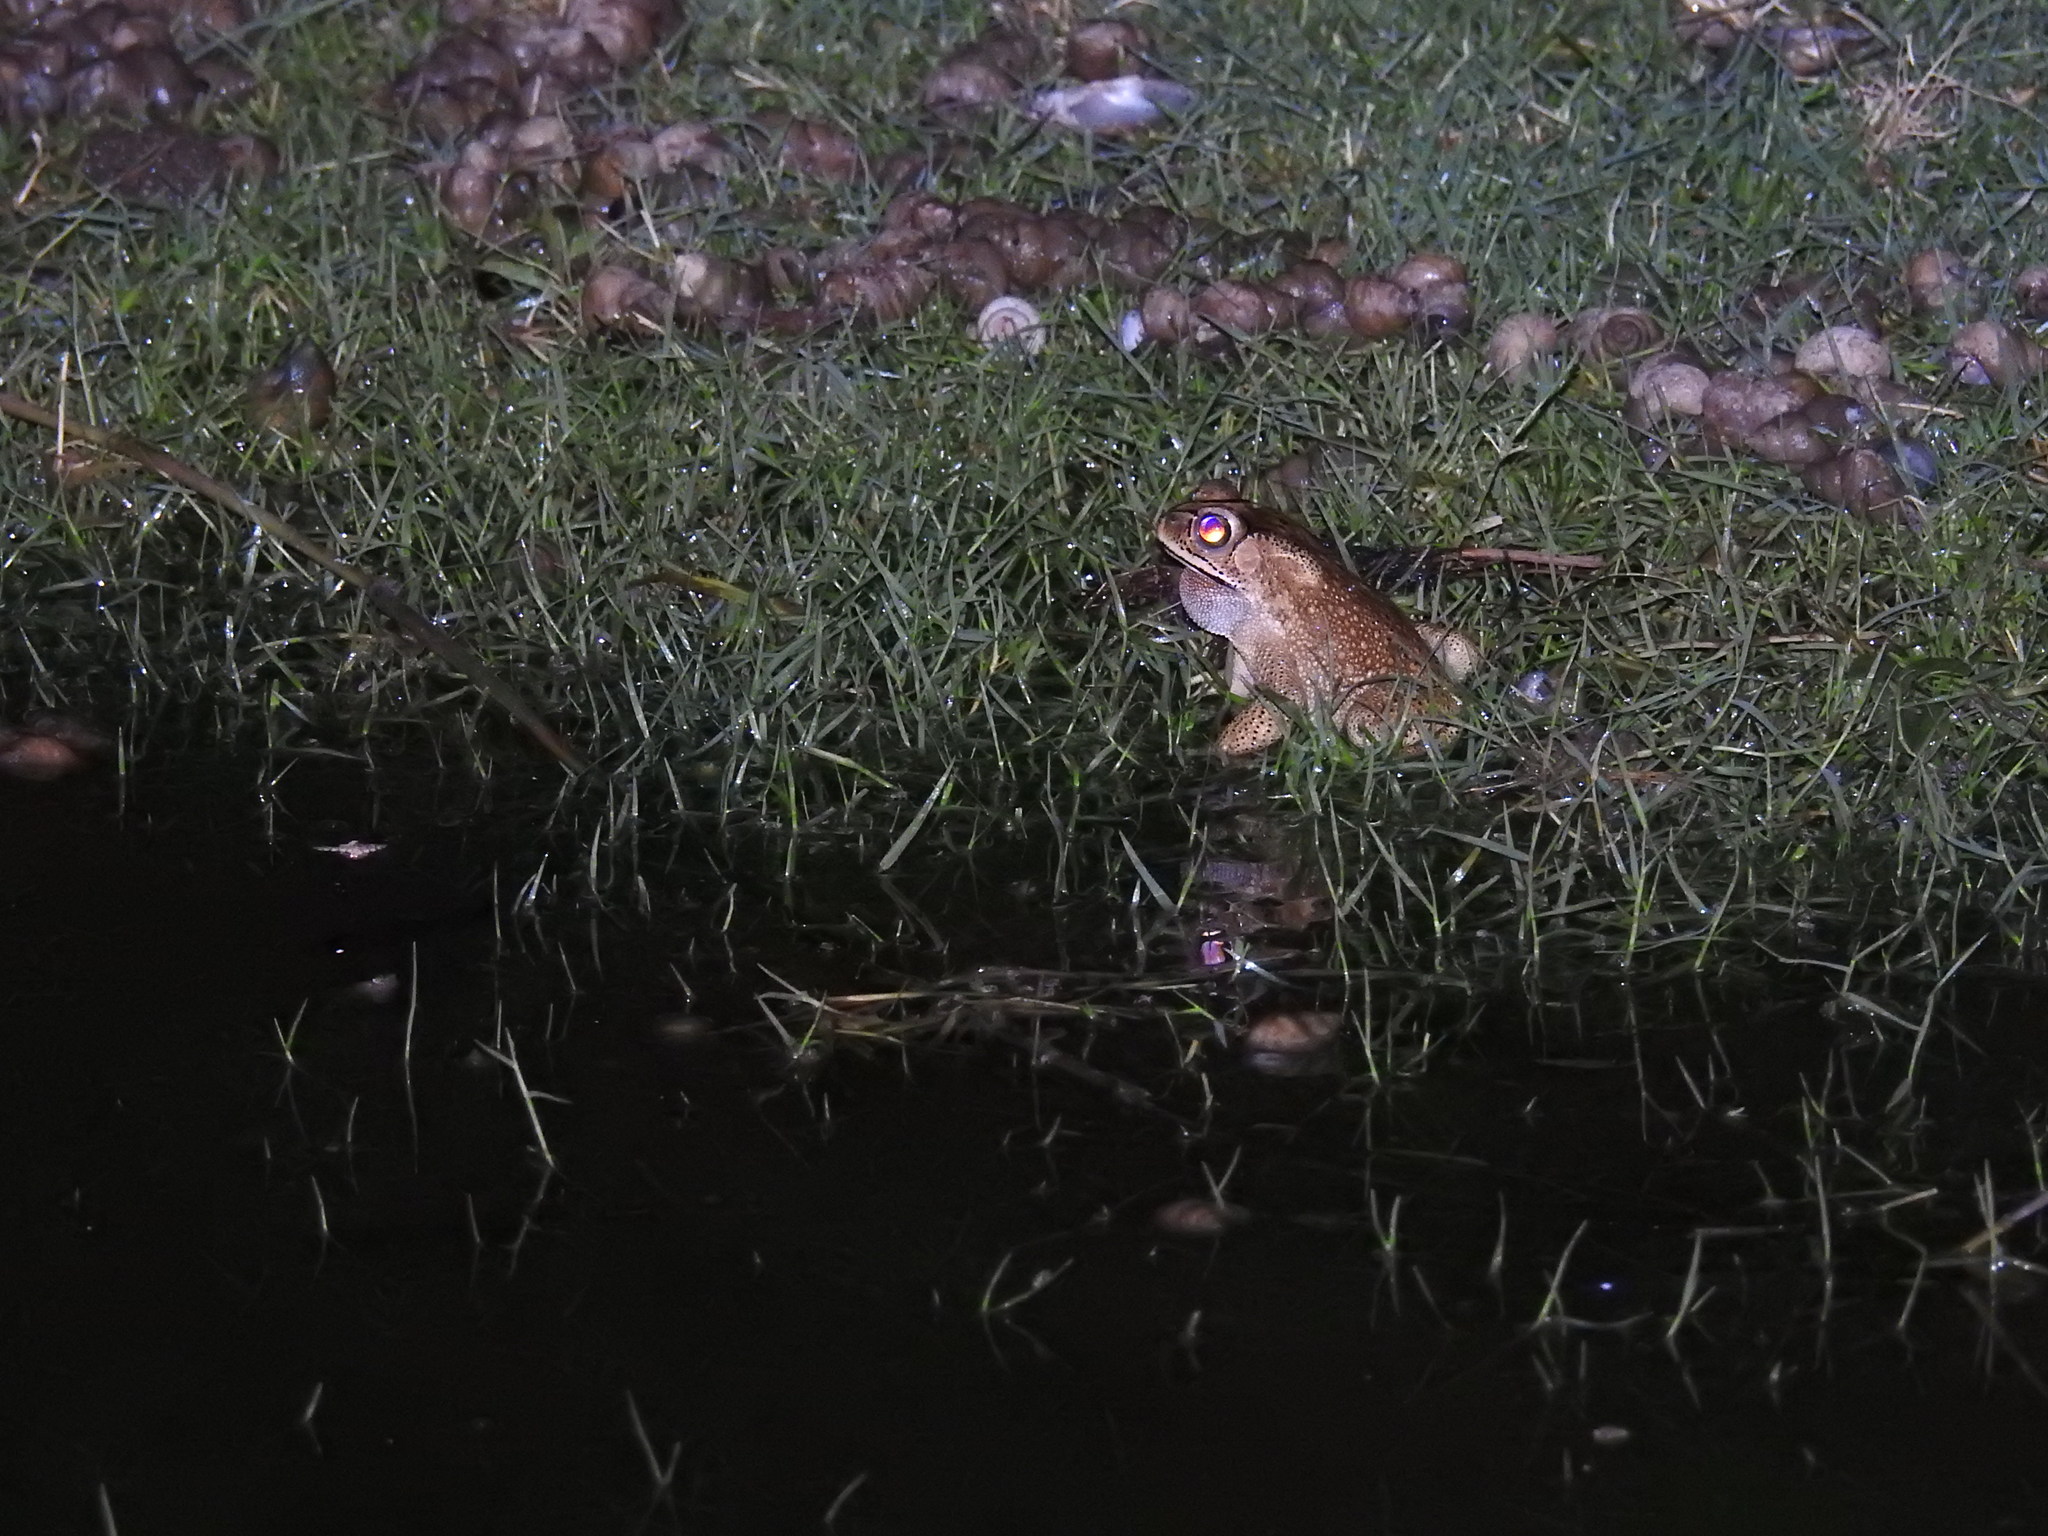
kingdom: Animalia
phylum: Chordata
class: Amphibia
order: Anura
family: Bufonidae
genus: Duttaphrynus
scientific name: Duttaphrynus melanostictus
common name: Common sunda toad
